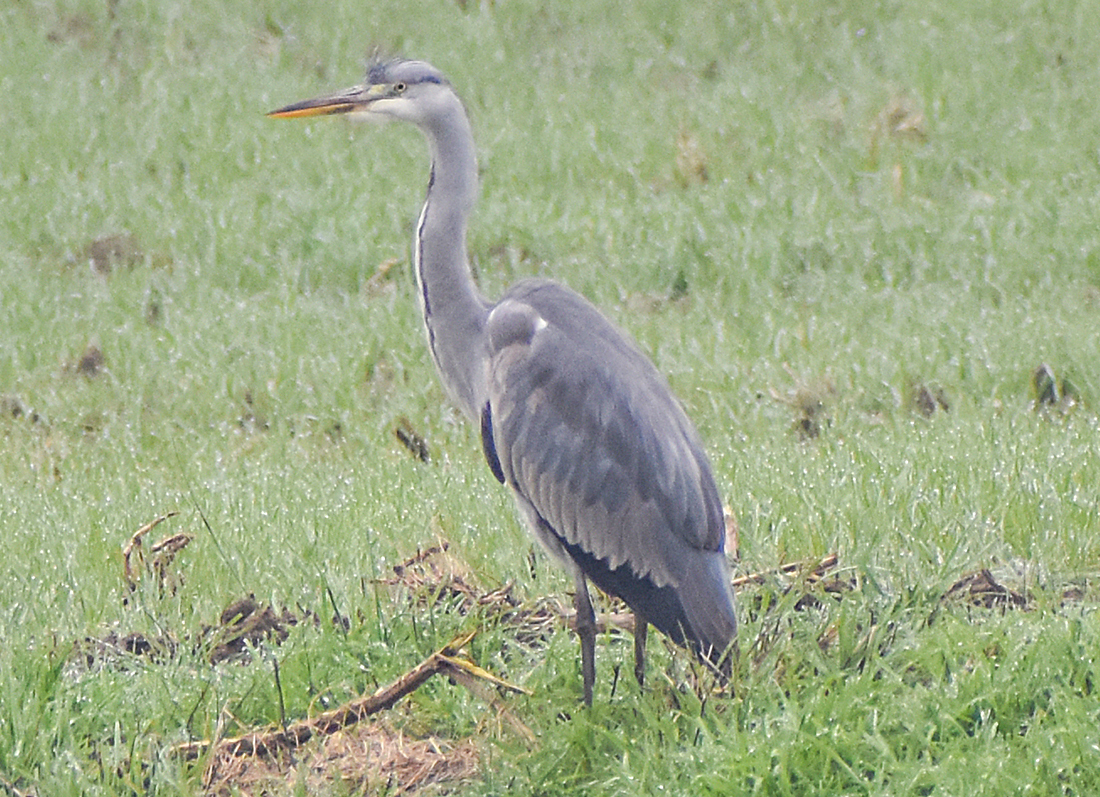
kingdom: Animalia
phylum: Chordata
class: Aves
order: Pelecaniformes
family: Ardeidae
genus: Ardea
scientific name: Ardea cinerea
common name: Grey heron
